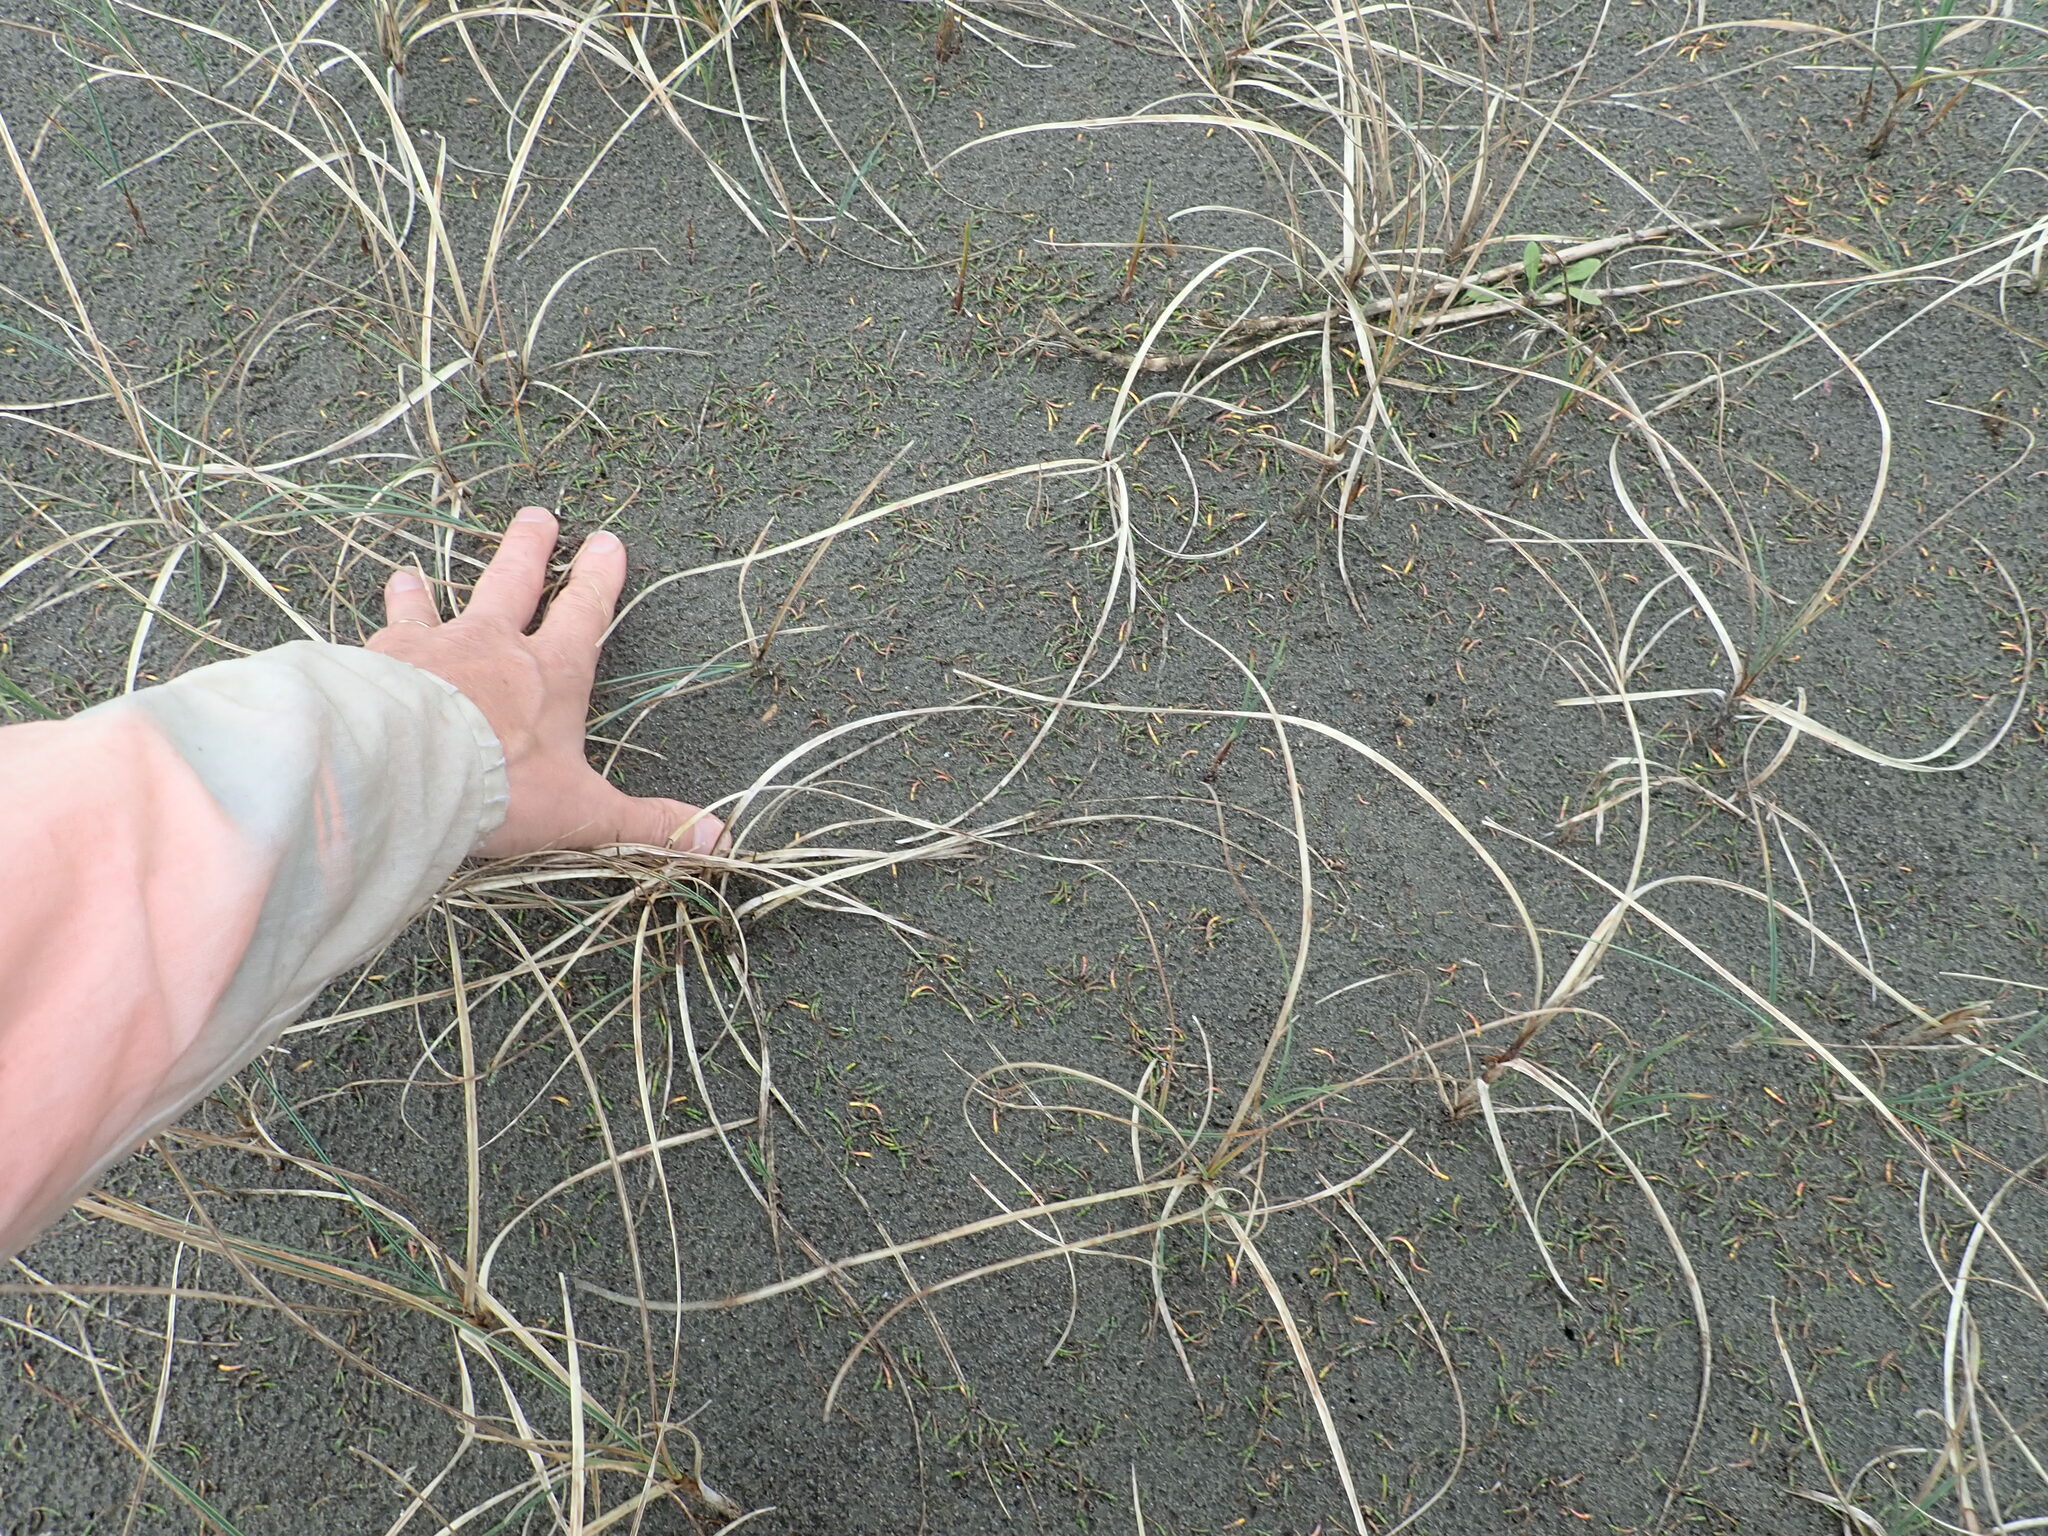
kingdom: Plantae
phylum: Tracheophyta
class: Magnoliopsida
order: Apiales
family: Apiaceae
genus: Lilaeopsis
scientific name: Lilaeopsis novae-zelandiae
